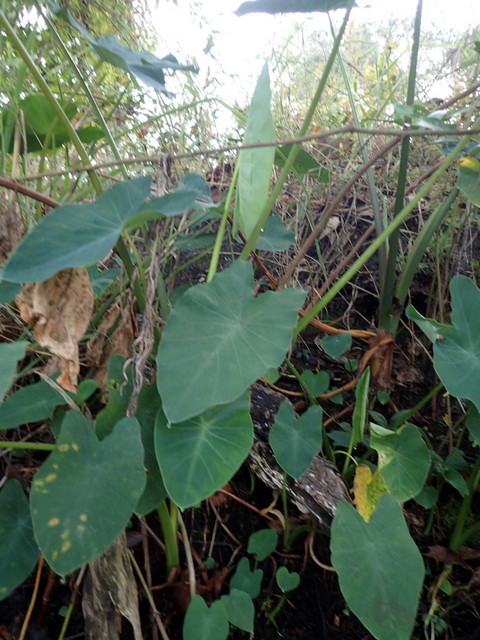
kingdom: Plantae
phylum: Tracheophyta
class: Liliopsida
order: Alismatales
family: Araceae
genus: Colocasia
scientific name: Colocasia esculenta
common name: Taro
